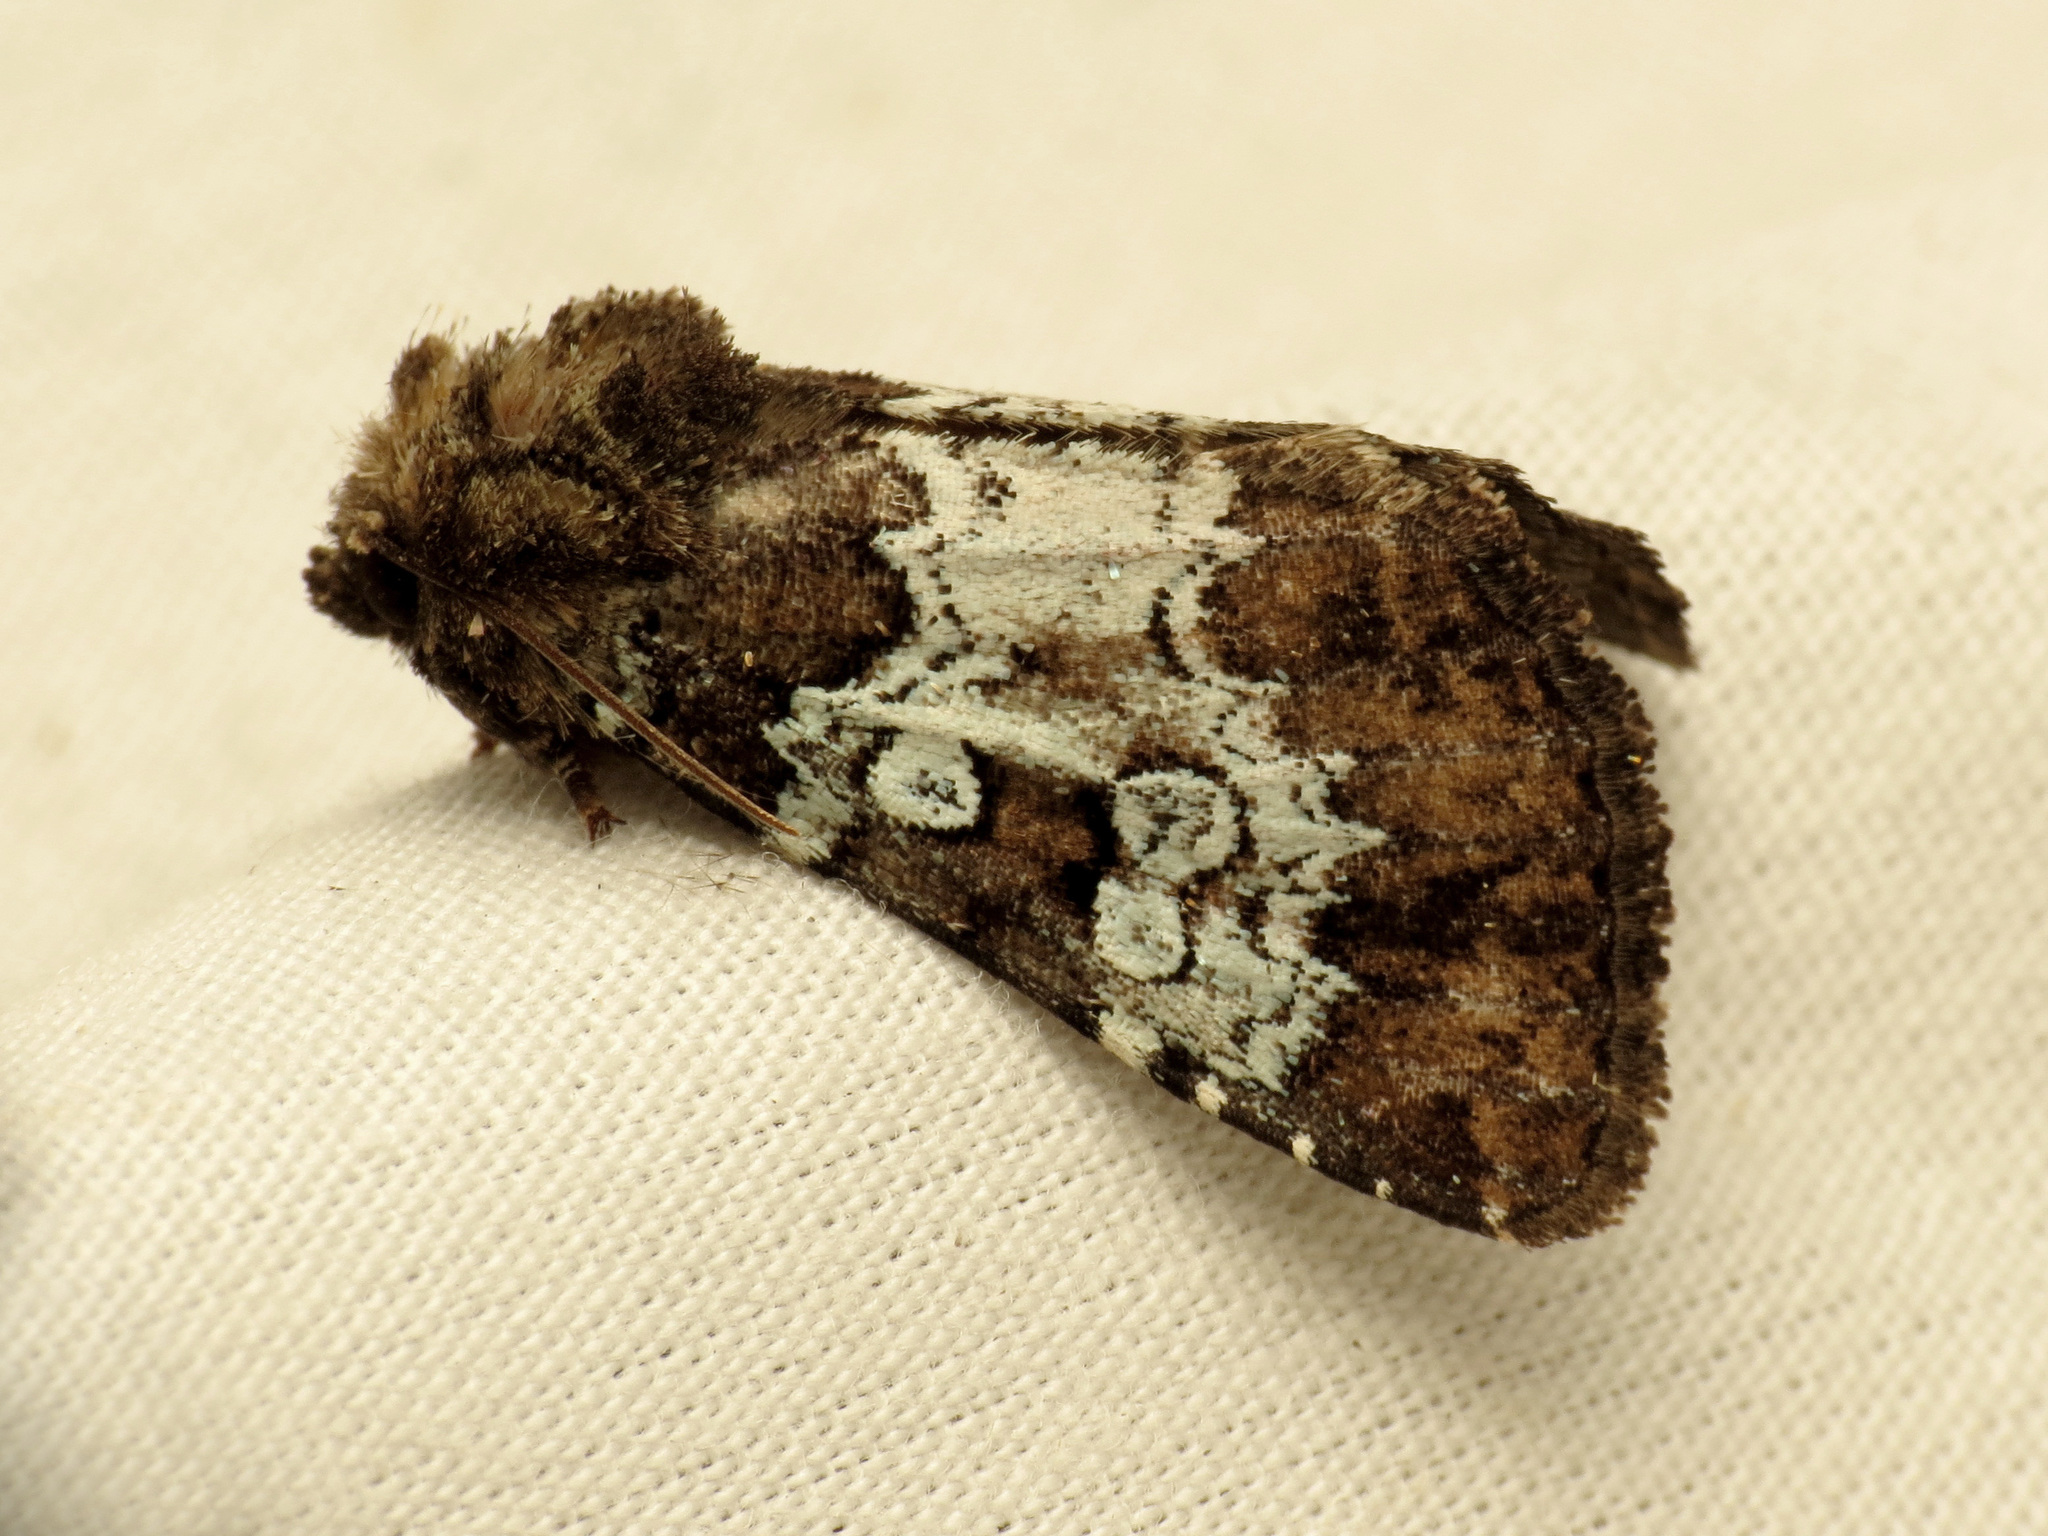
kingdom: Animalia
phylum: Arthropoda
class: Insecta
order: Lepidoptera
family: Noctuidae
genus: Euamiana
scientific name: Euamiana contrasta
